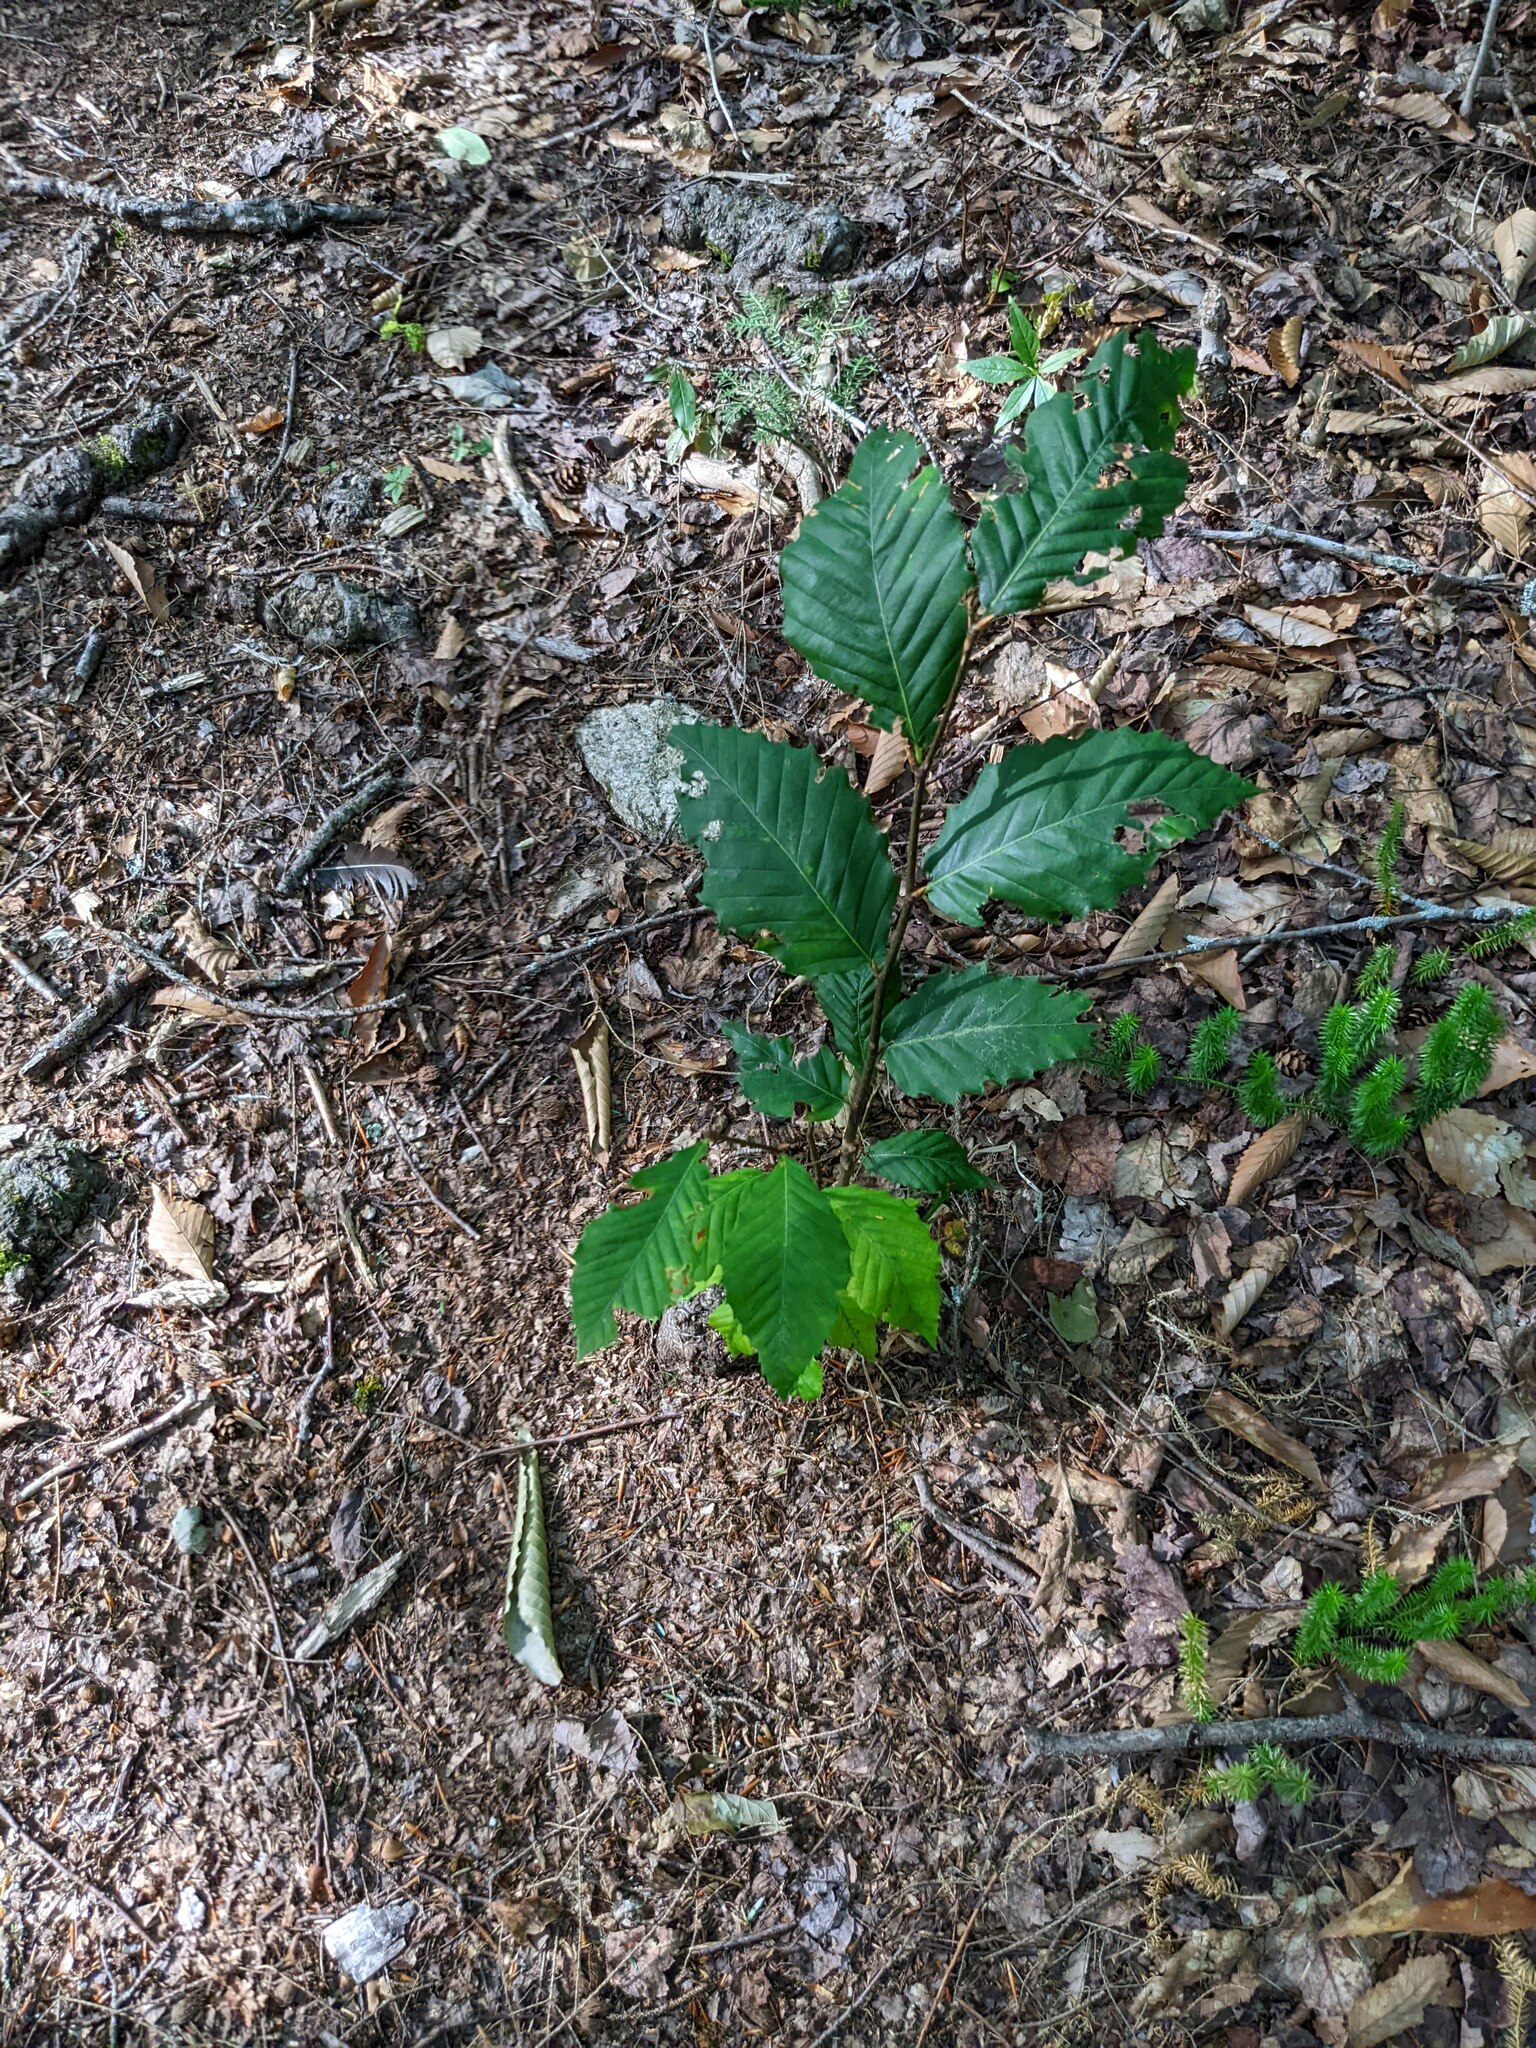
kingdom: Plantae
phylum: Tracheophyta
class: Magnoliopsida
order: Fagales
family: Fagaceae
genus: Fagus
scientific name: Fagus grandifolia
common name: American beech
